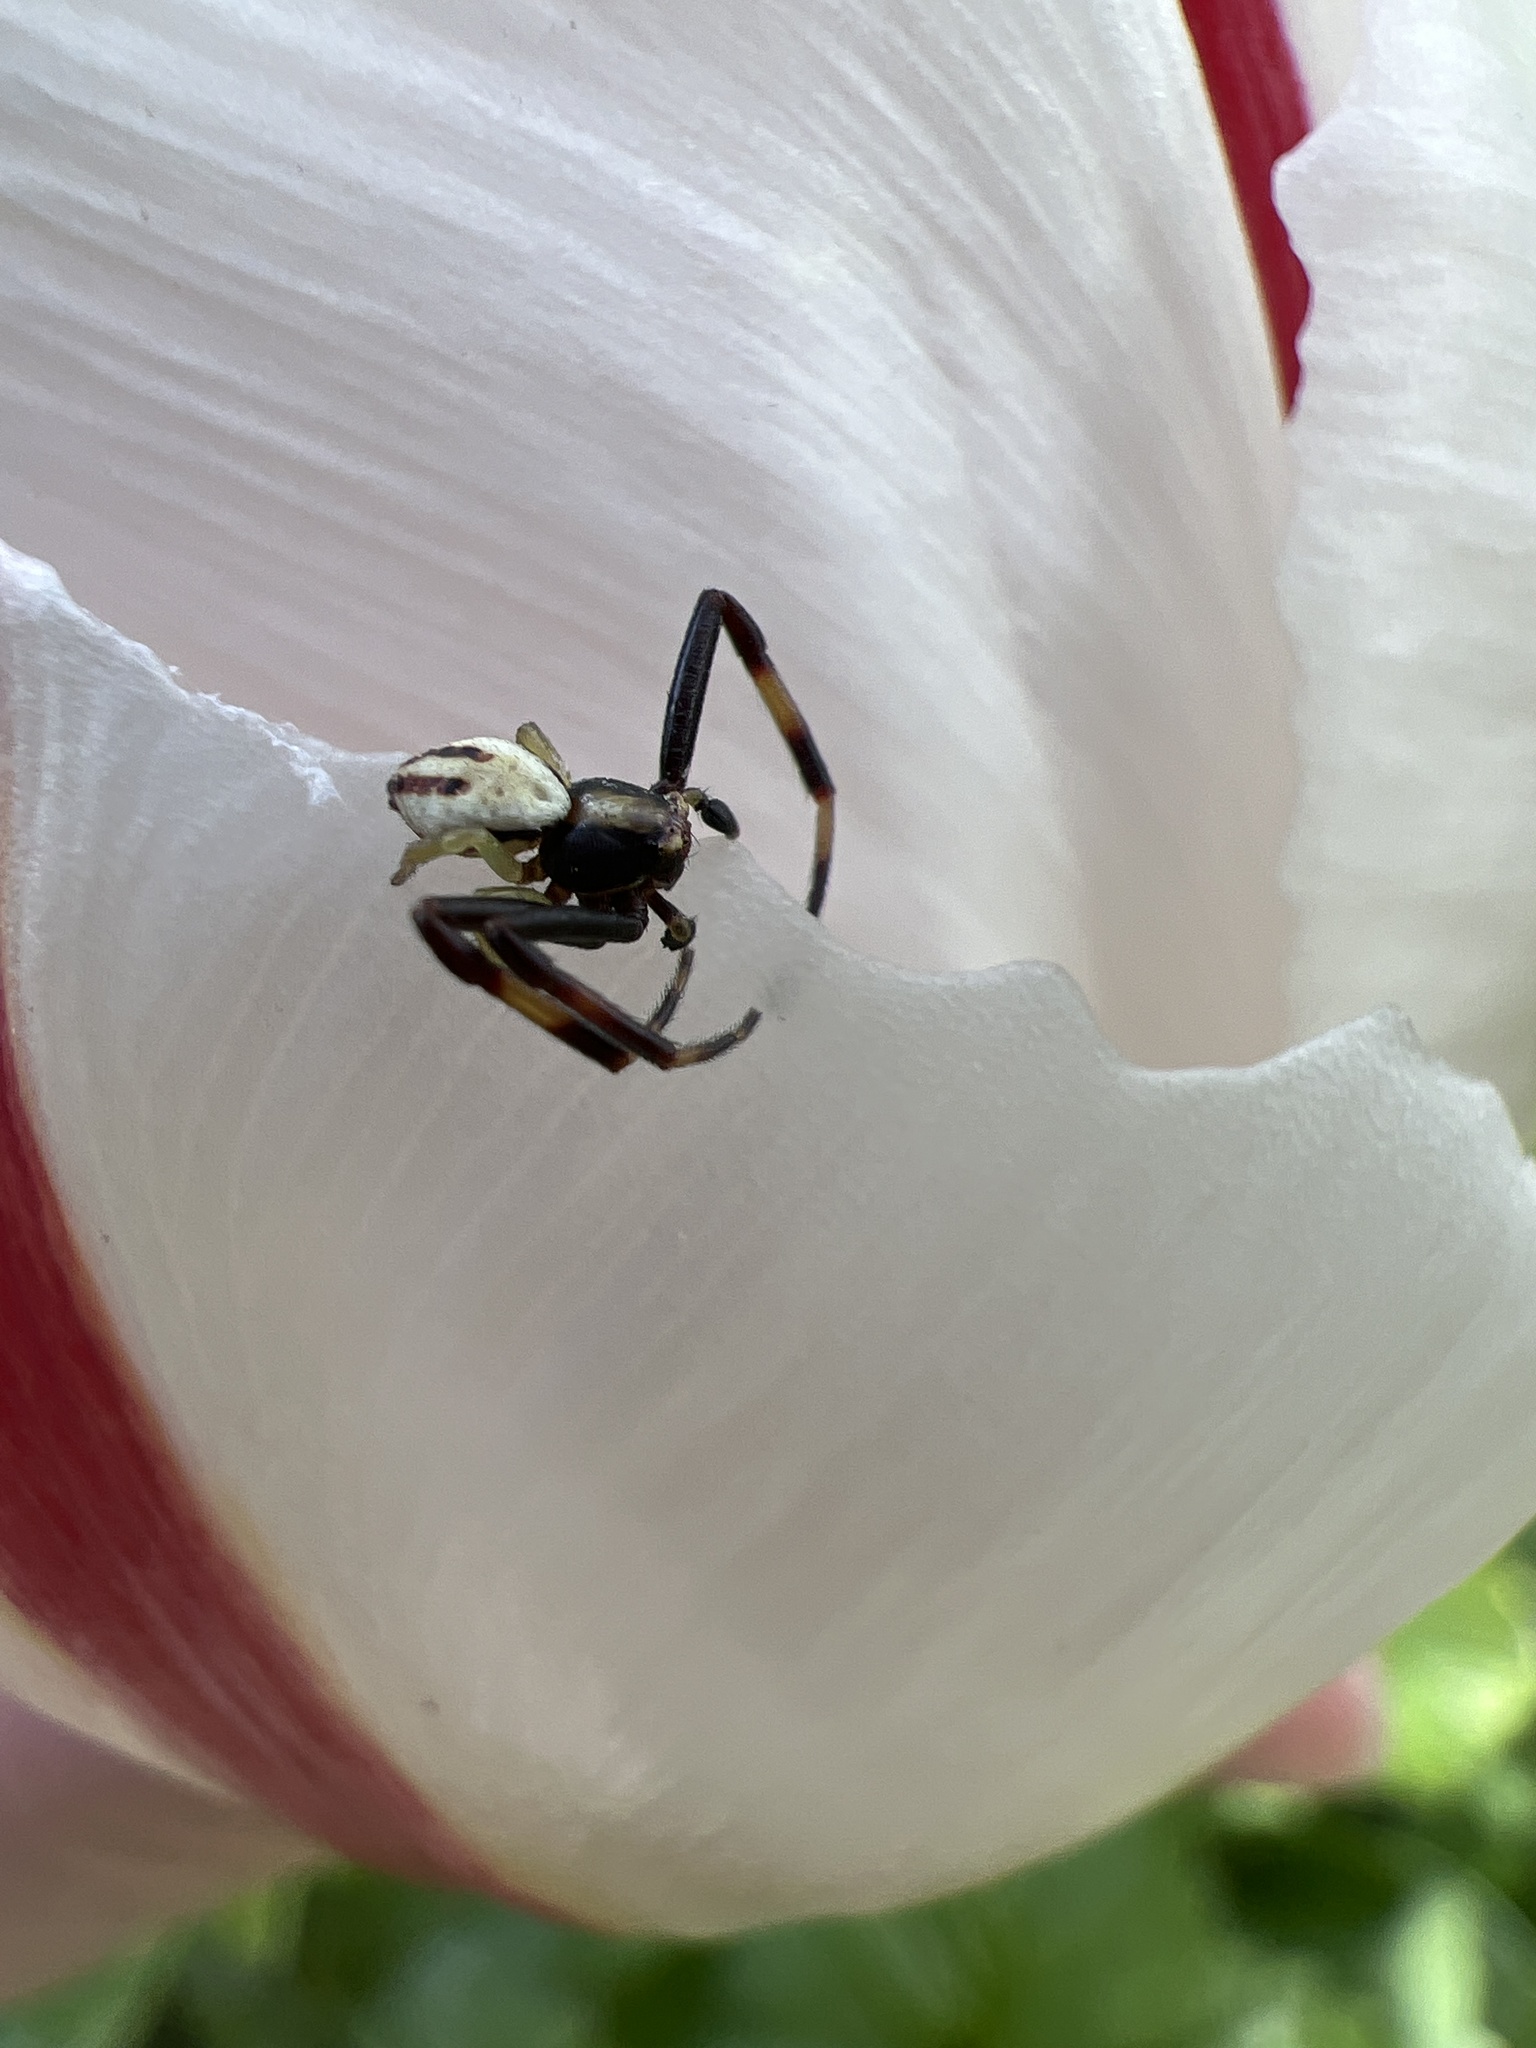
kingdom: Animalia
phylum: Arthropoda
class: Arachnida
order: Araneae
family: Thomisidae
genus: Misumena
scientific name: Misumena vatia
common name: Goldenrod crab spider
